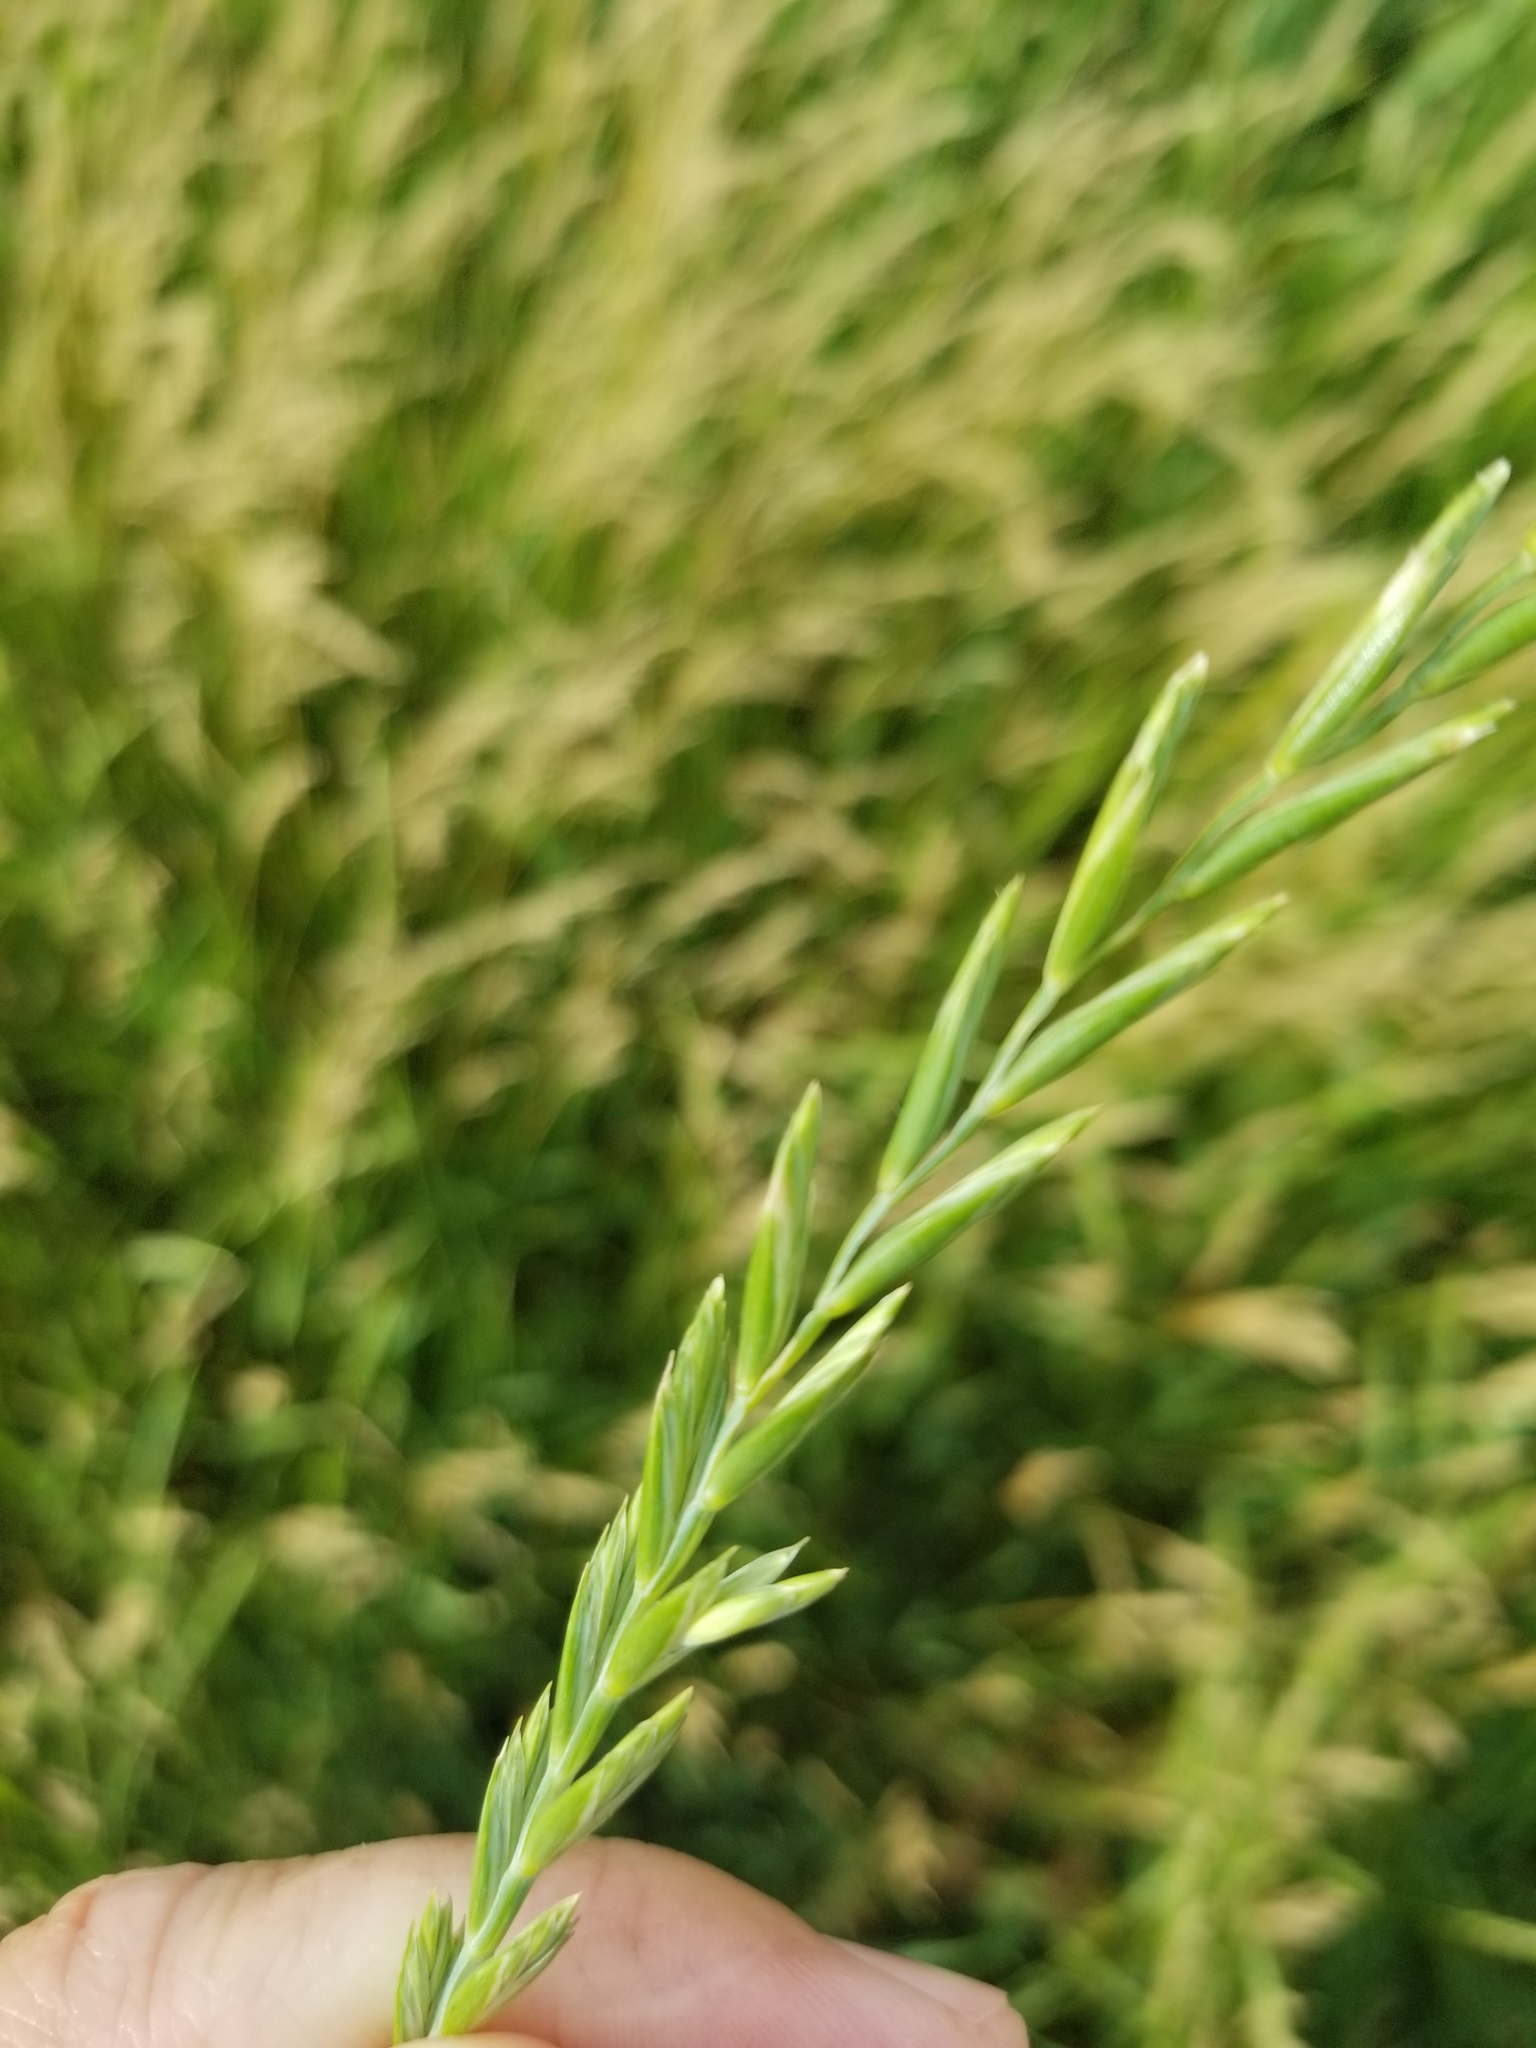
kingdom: Plantae
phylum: Tracheophyta
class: Liliopsida
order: Poales
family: Poaceae
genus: Elymus
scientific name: Elymus repens
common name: Quackgrass
